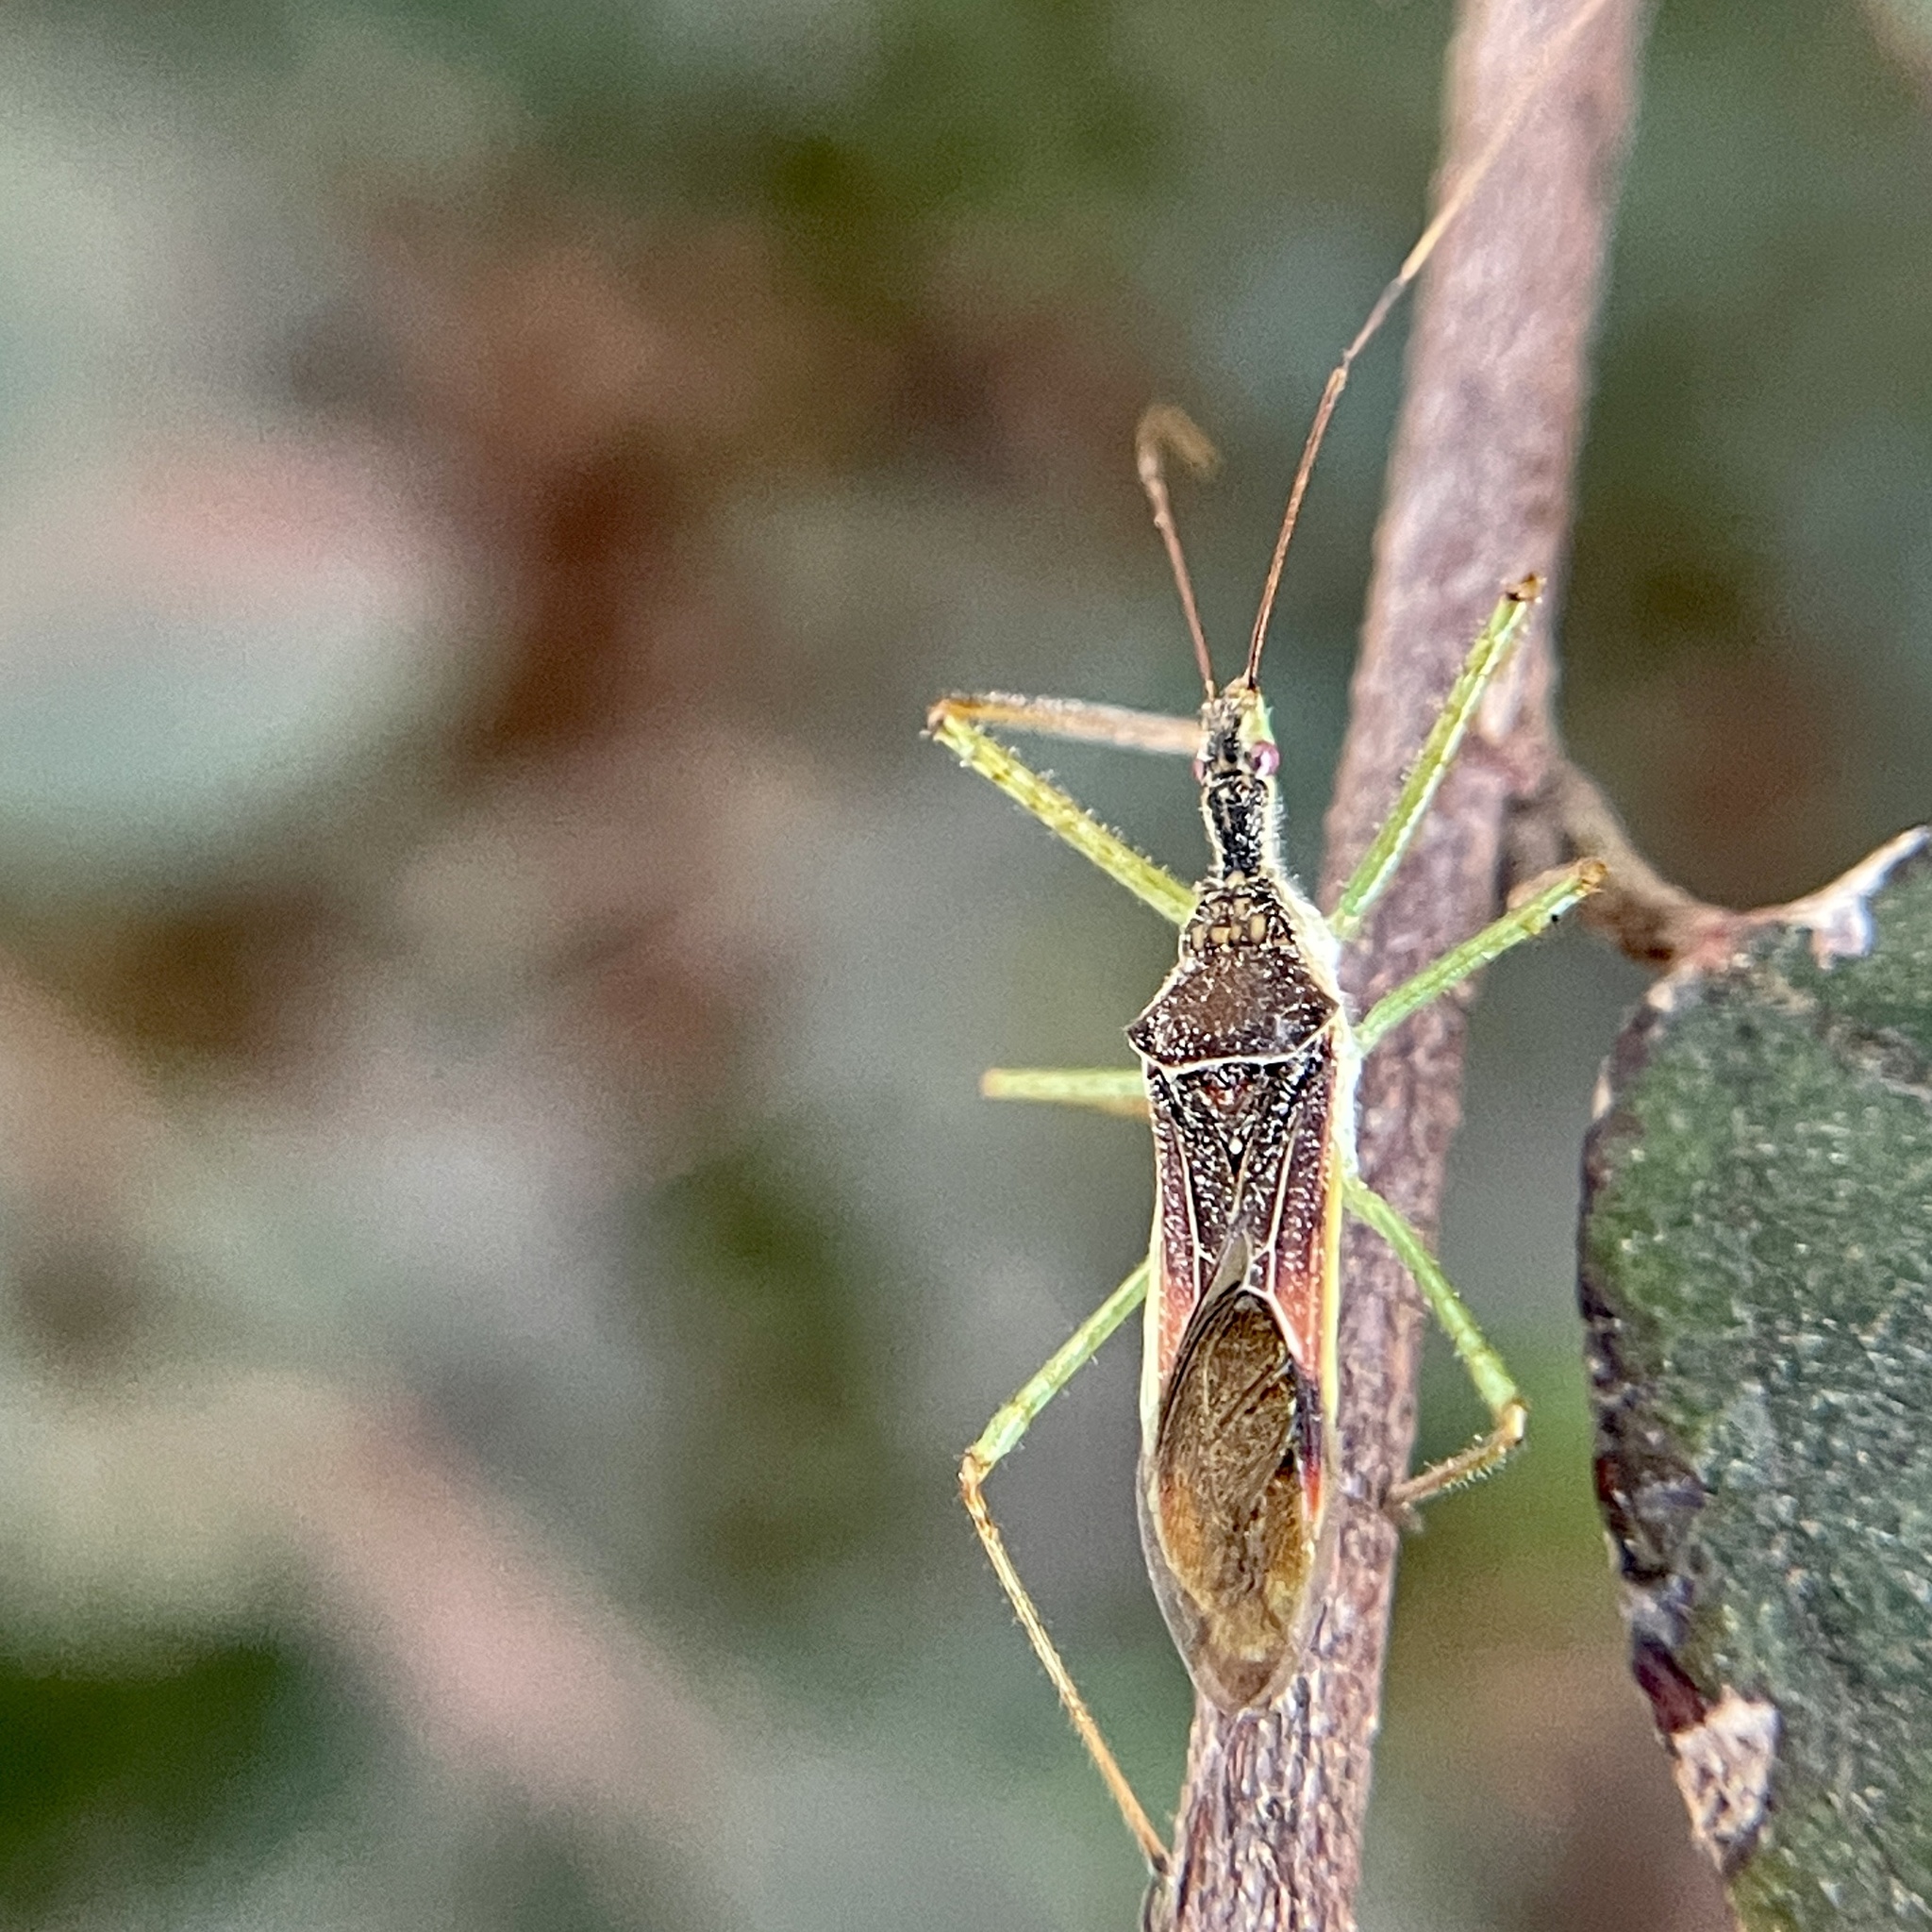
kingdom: Animalia
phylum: Arthropoda
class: Insecta
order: Hemiptera
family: Reduviidae
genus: Zelus
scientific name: Zelus renardii
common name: Assassin bug
